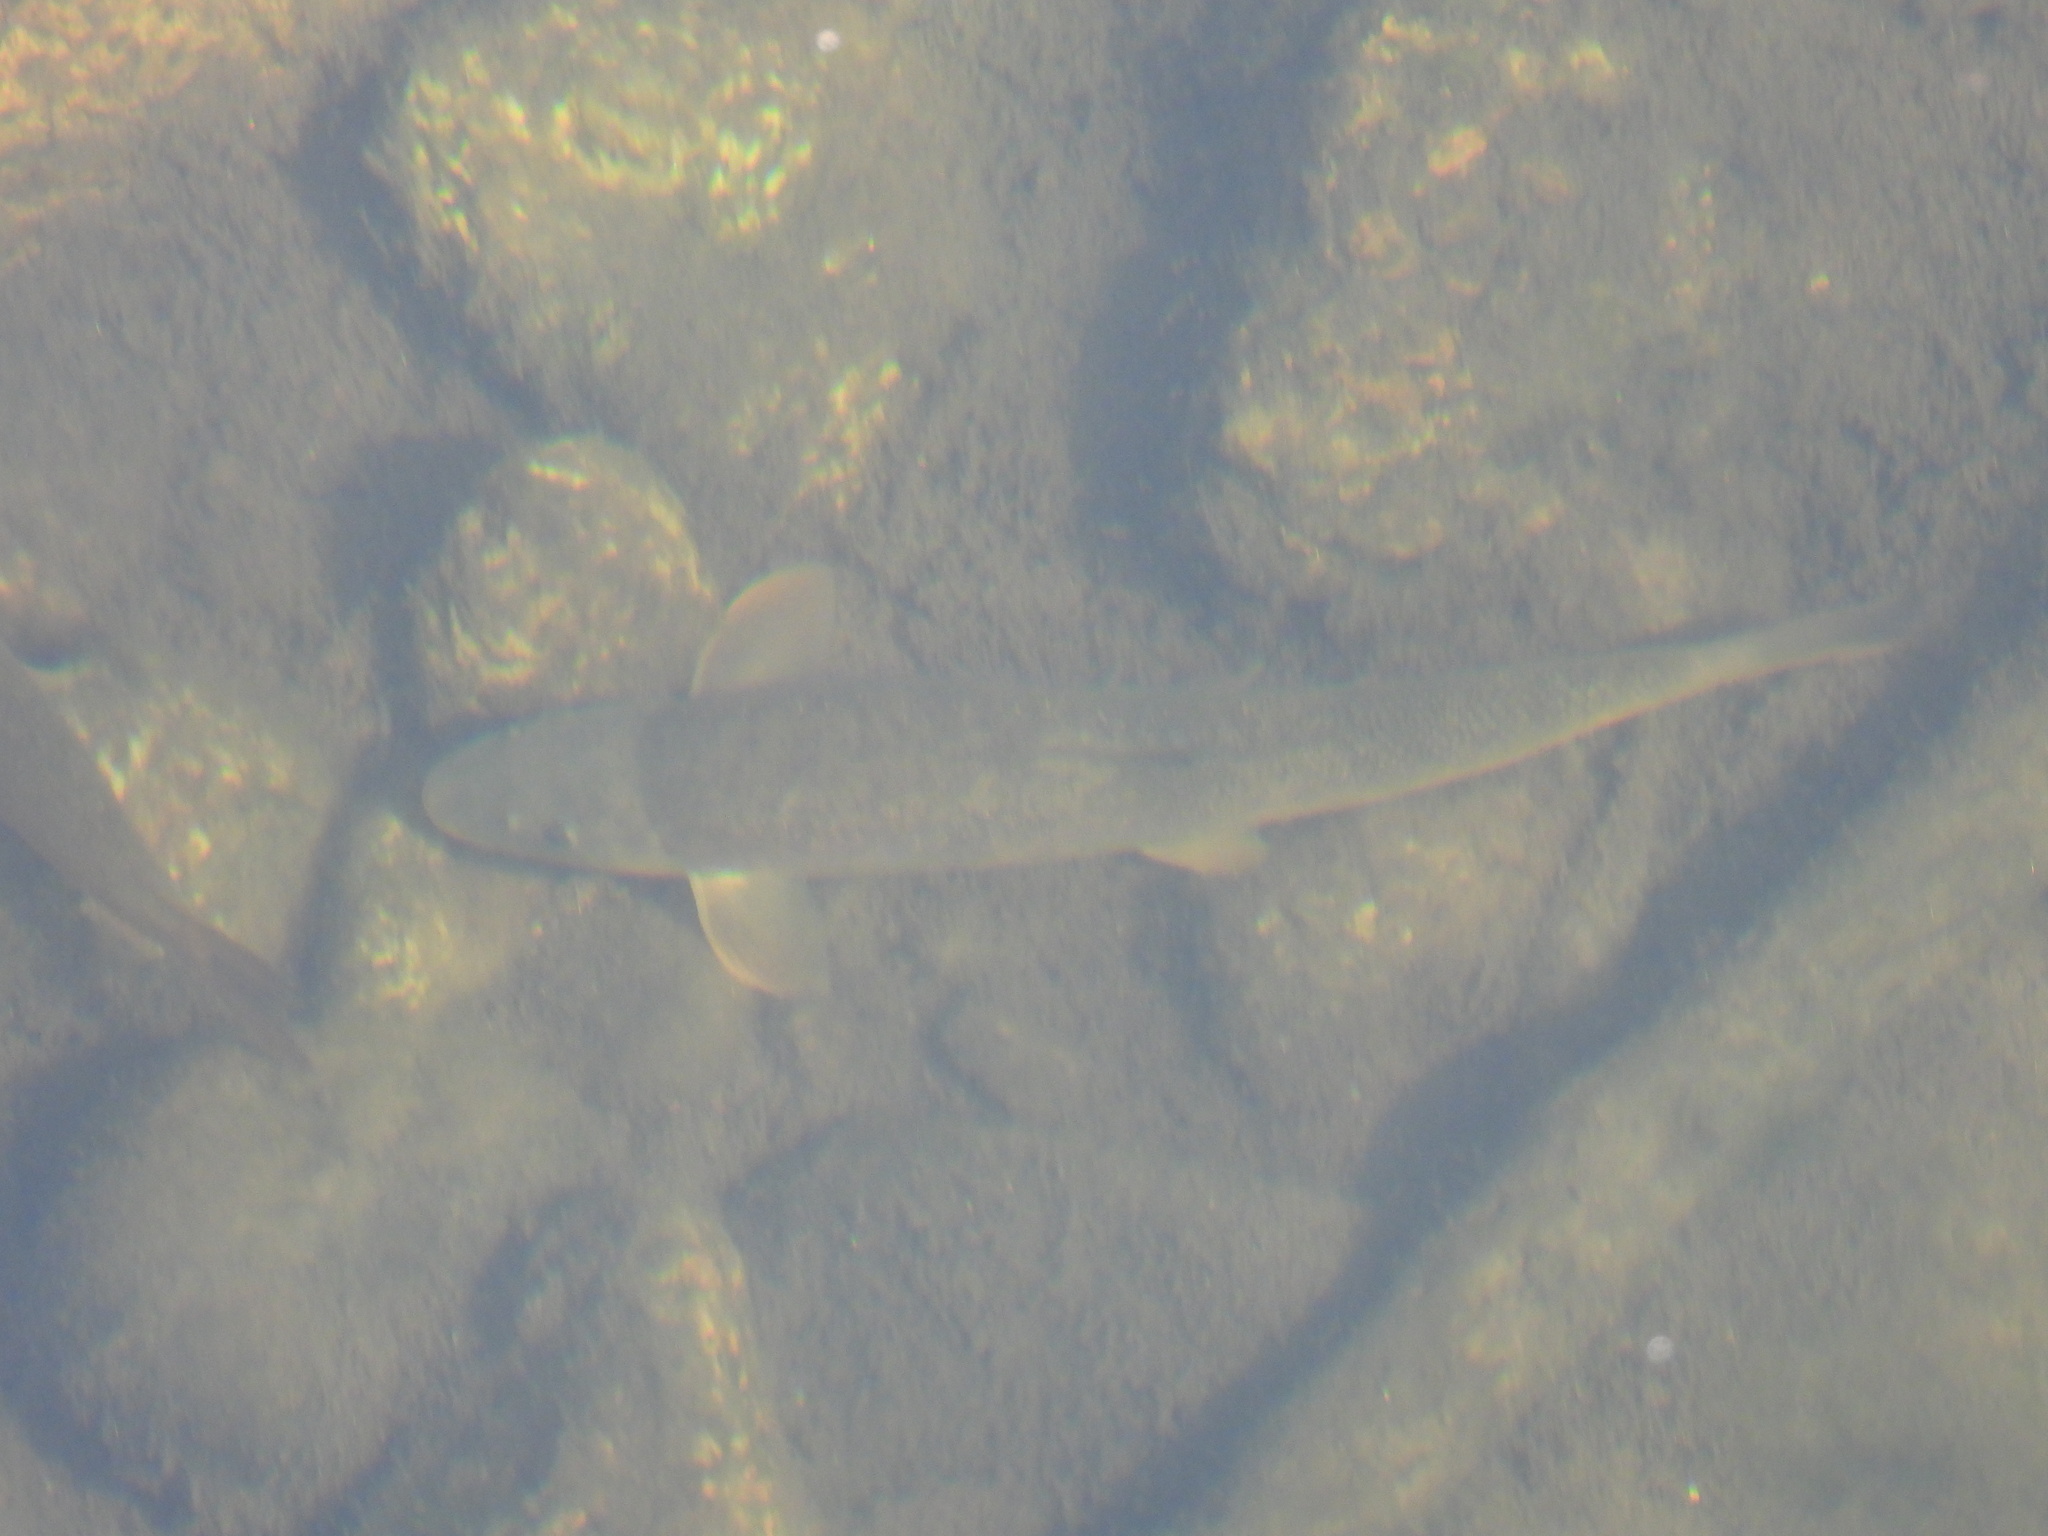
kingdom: Animalia
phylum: Chordata
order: Cypriniformes
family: Catostomidae
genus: Catostomus
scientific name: Catostomus catostomus
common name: Longnose sucker
